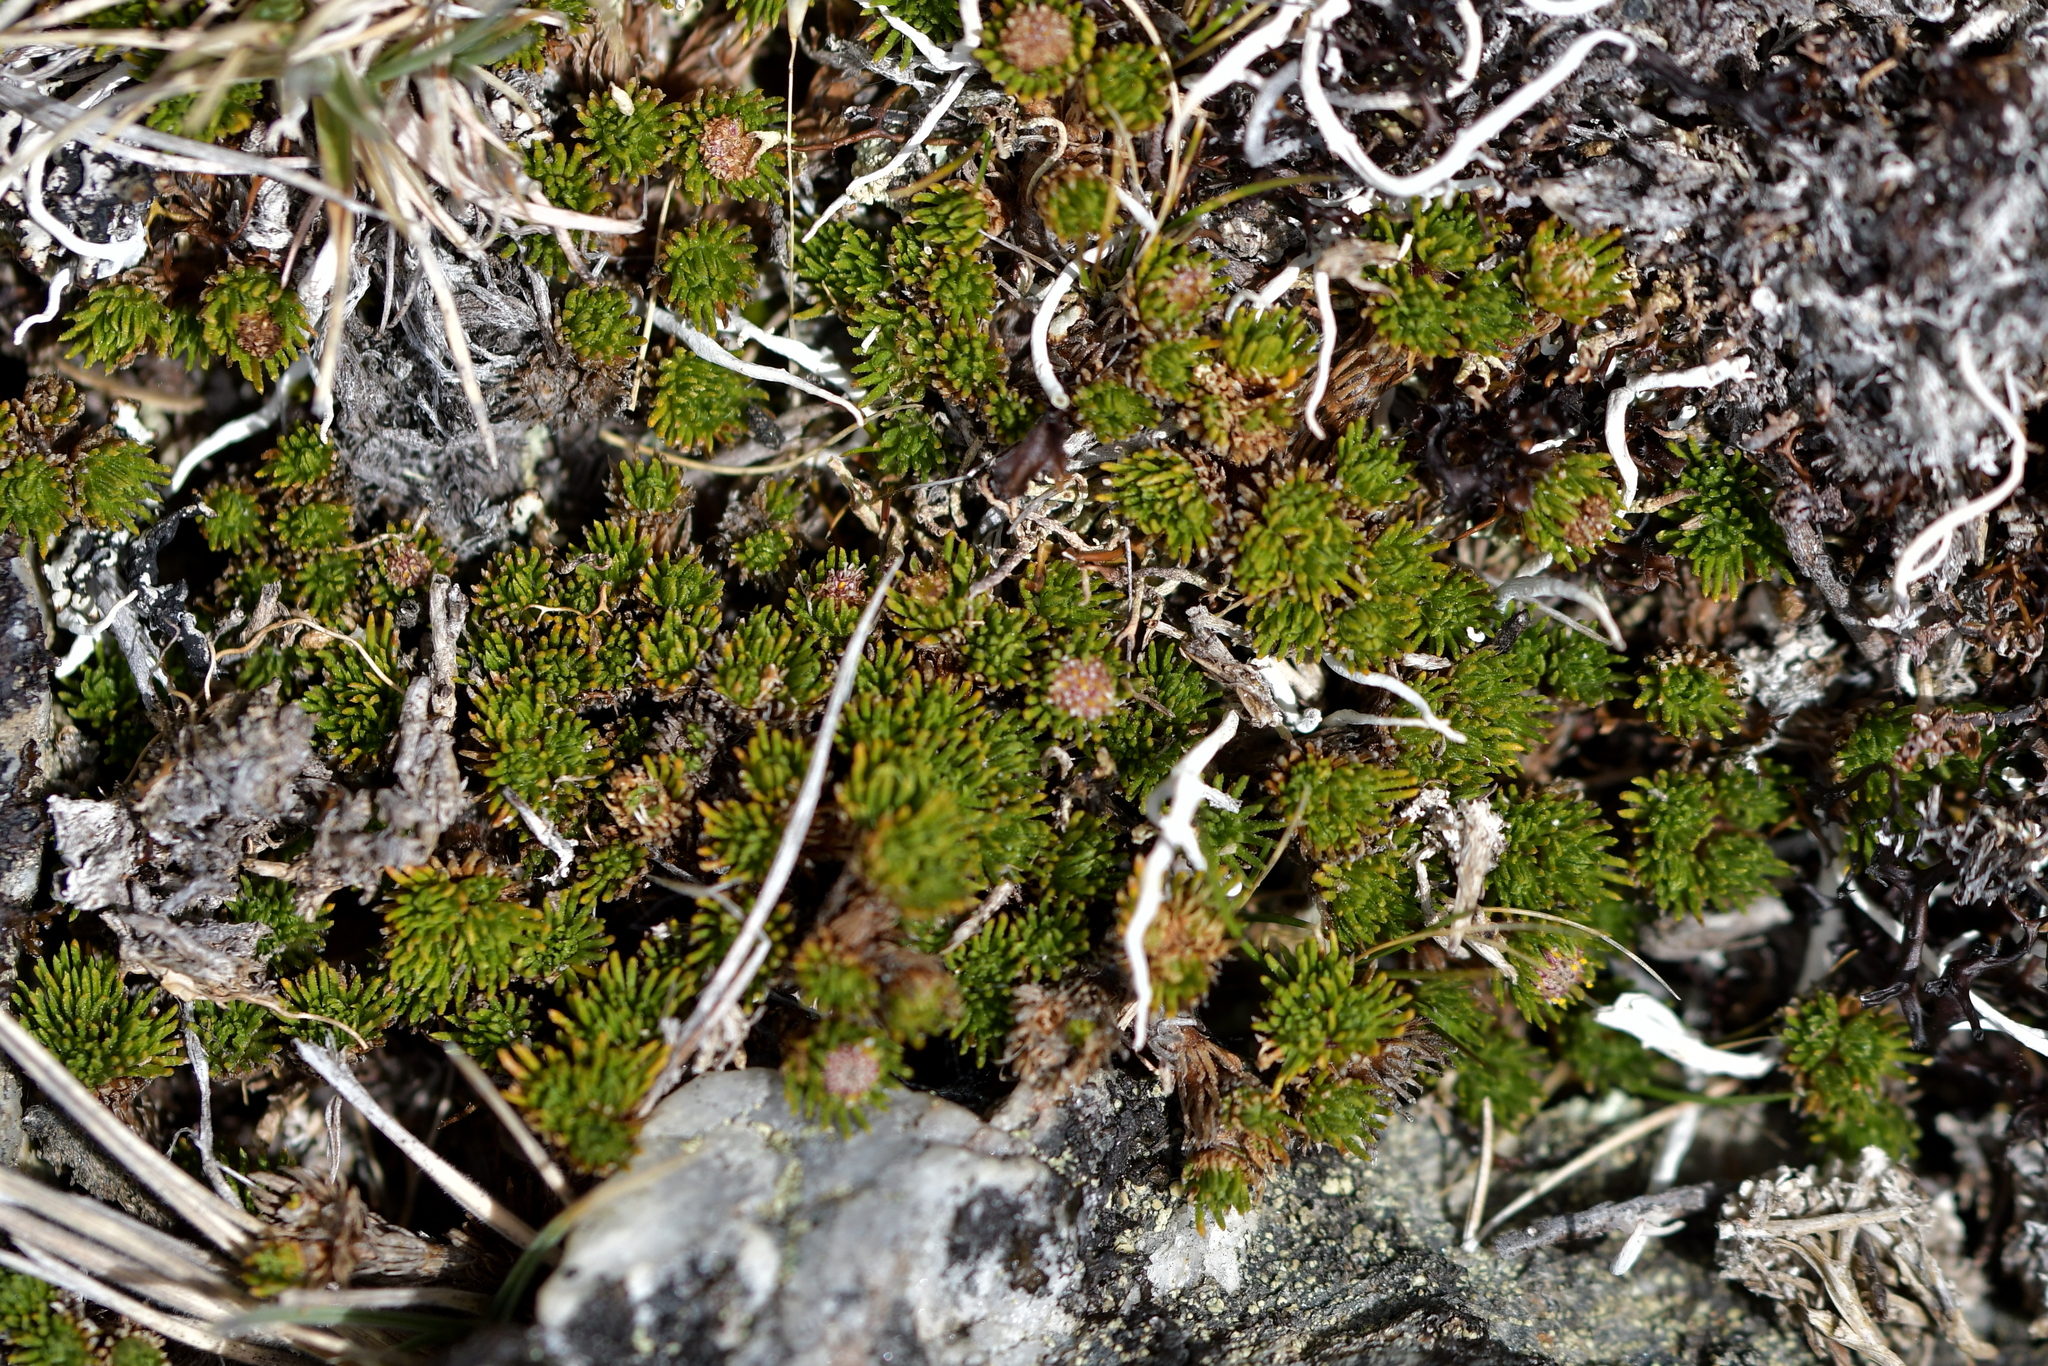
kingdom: Plantae
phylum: Tracheophyta
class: Magnoliopsida
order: Asterales
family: Asteraceae
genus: Leptinella
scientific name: Leptinella goyenii
